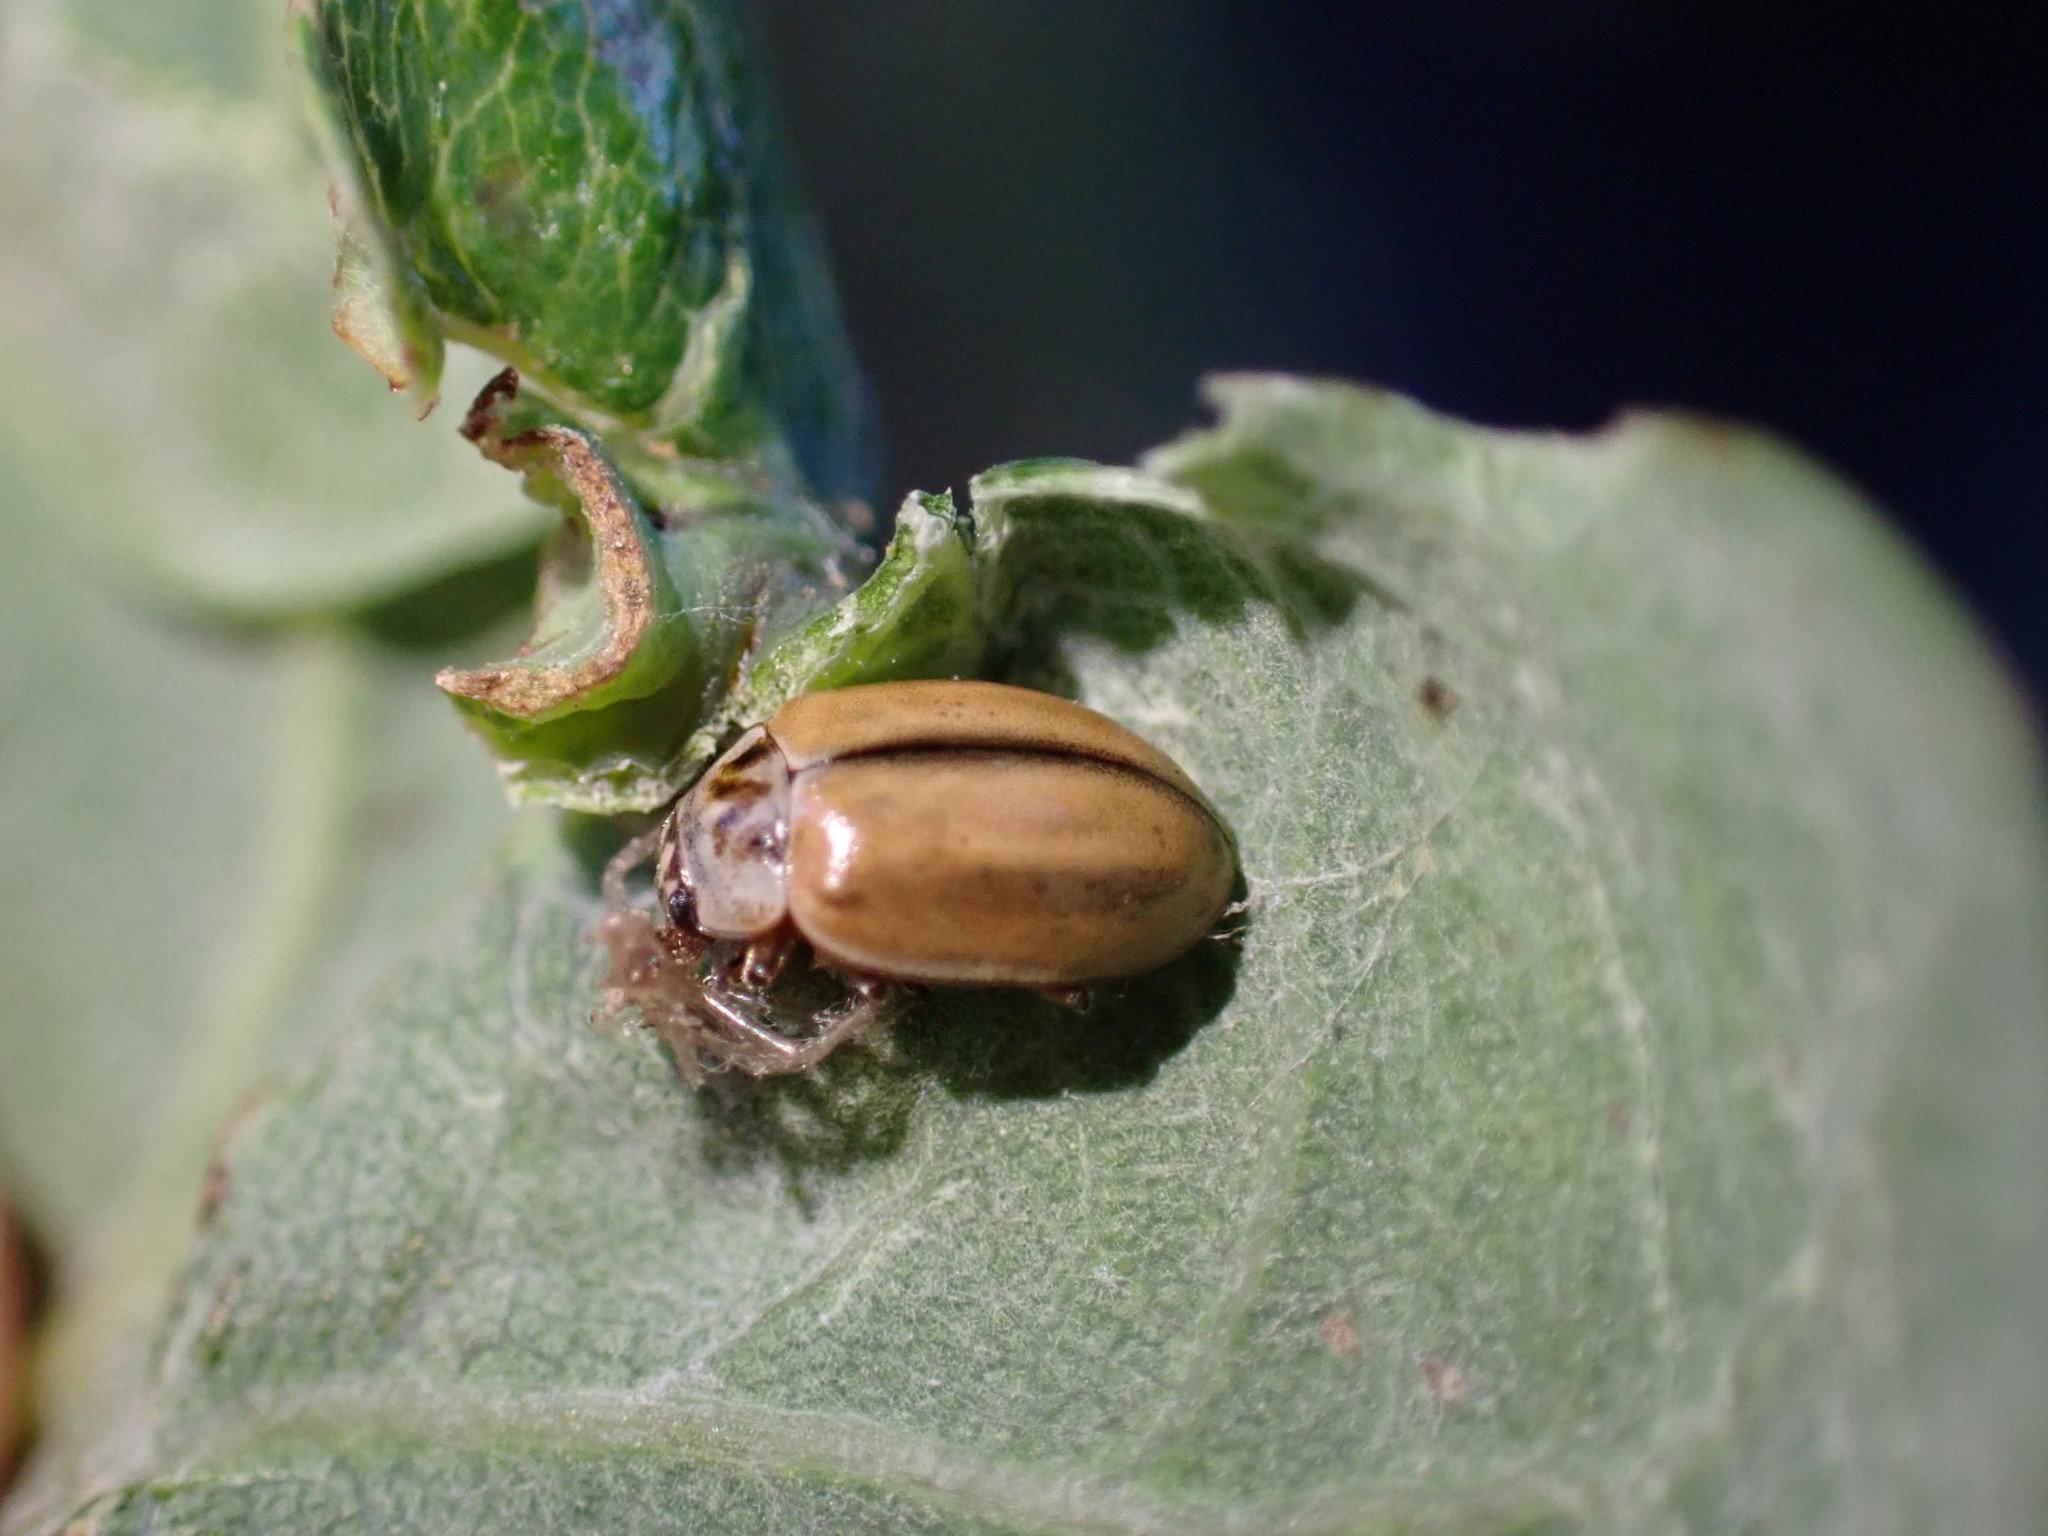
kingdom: Animalia
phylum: Arthropoda
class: Insecta
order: Coleoptera
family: Coccinellidae
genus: Aphidecta
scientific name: Aphidecta obliterata
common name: Larch ladybird
